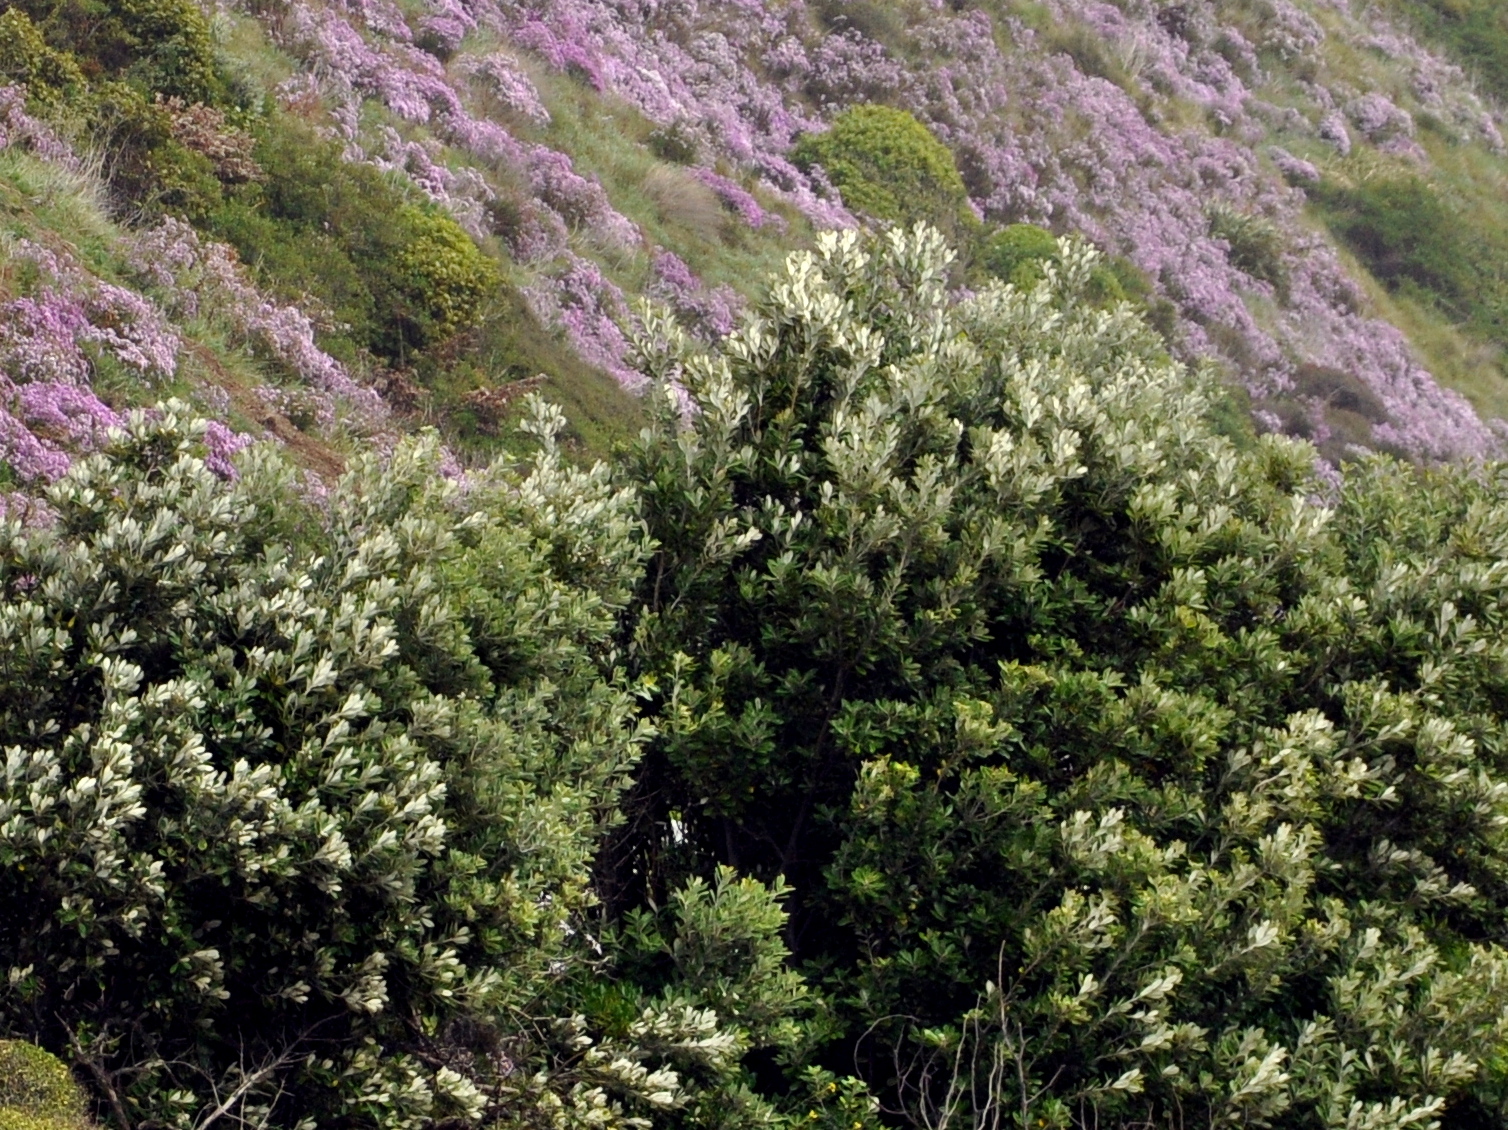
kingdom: Plantae
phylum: Tracheophyta
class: Magnoliopsida
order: Apiales
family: Pittosporaceae
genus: Pittosporum
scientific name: Pittosporum crassifolium
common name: Karo
